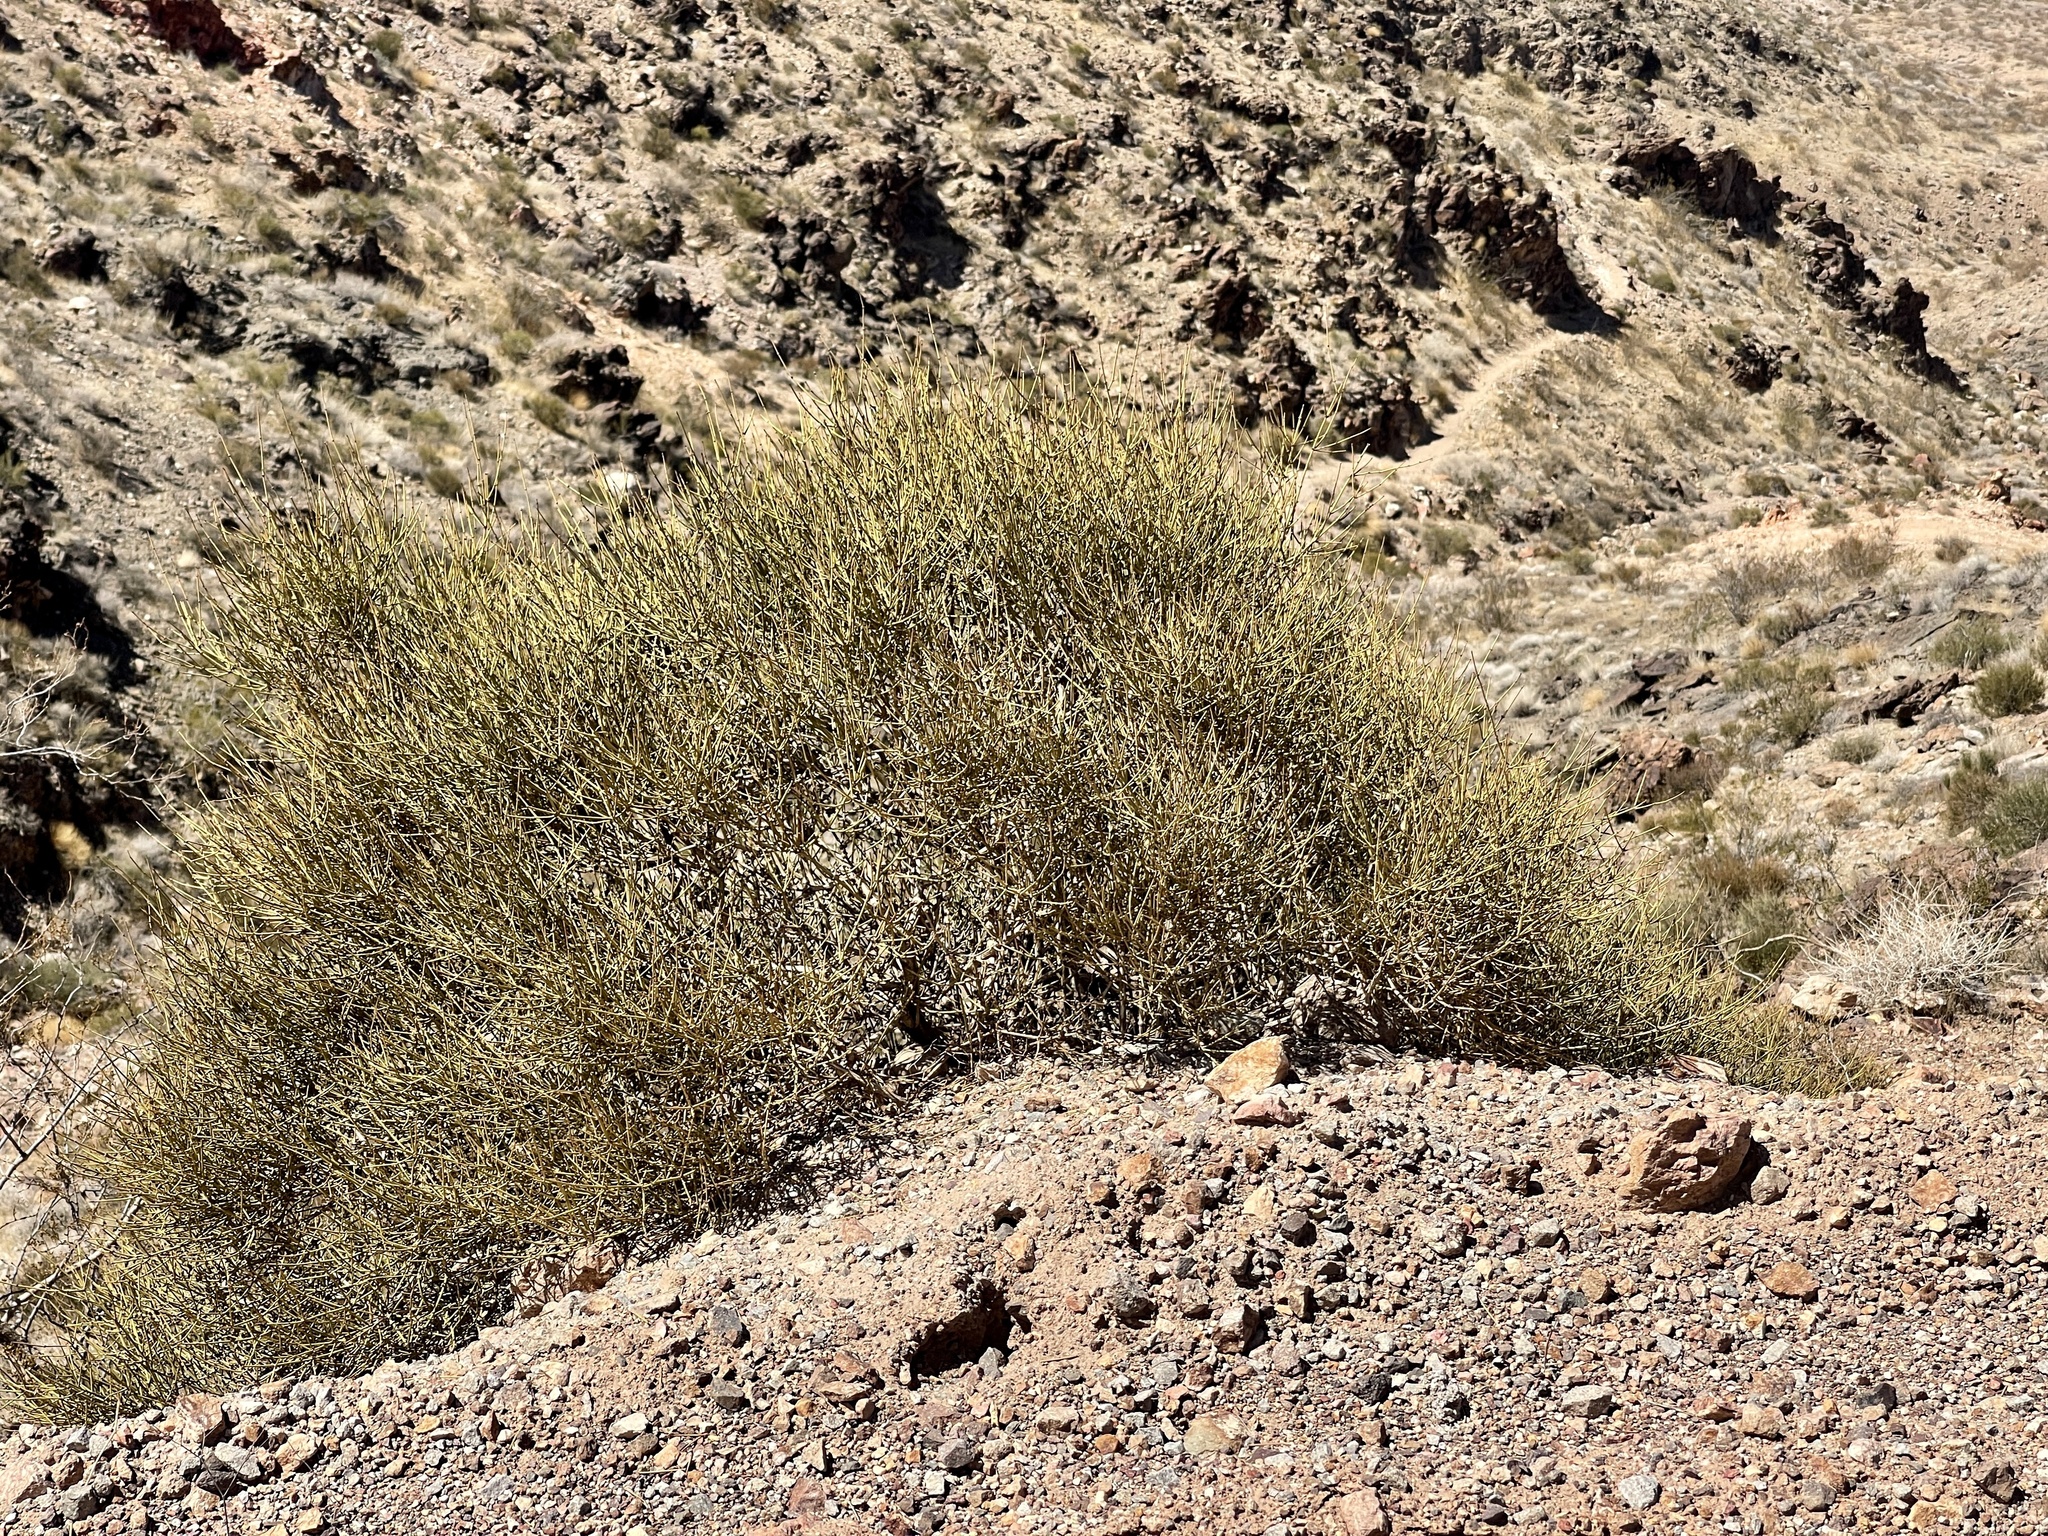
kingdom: Plantae
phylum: Tracheophyta
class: Gnetopsida
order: Ephedrales
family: Ephedraceae
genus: Ephedra
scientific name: Ephedra nevadensis
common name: Gray ephedra
